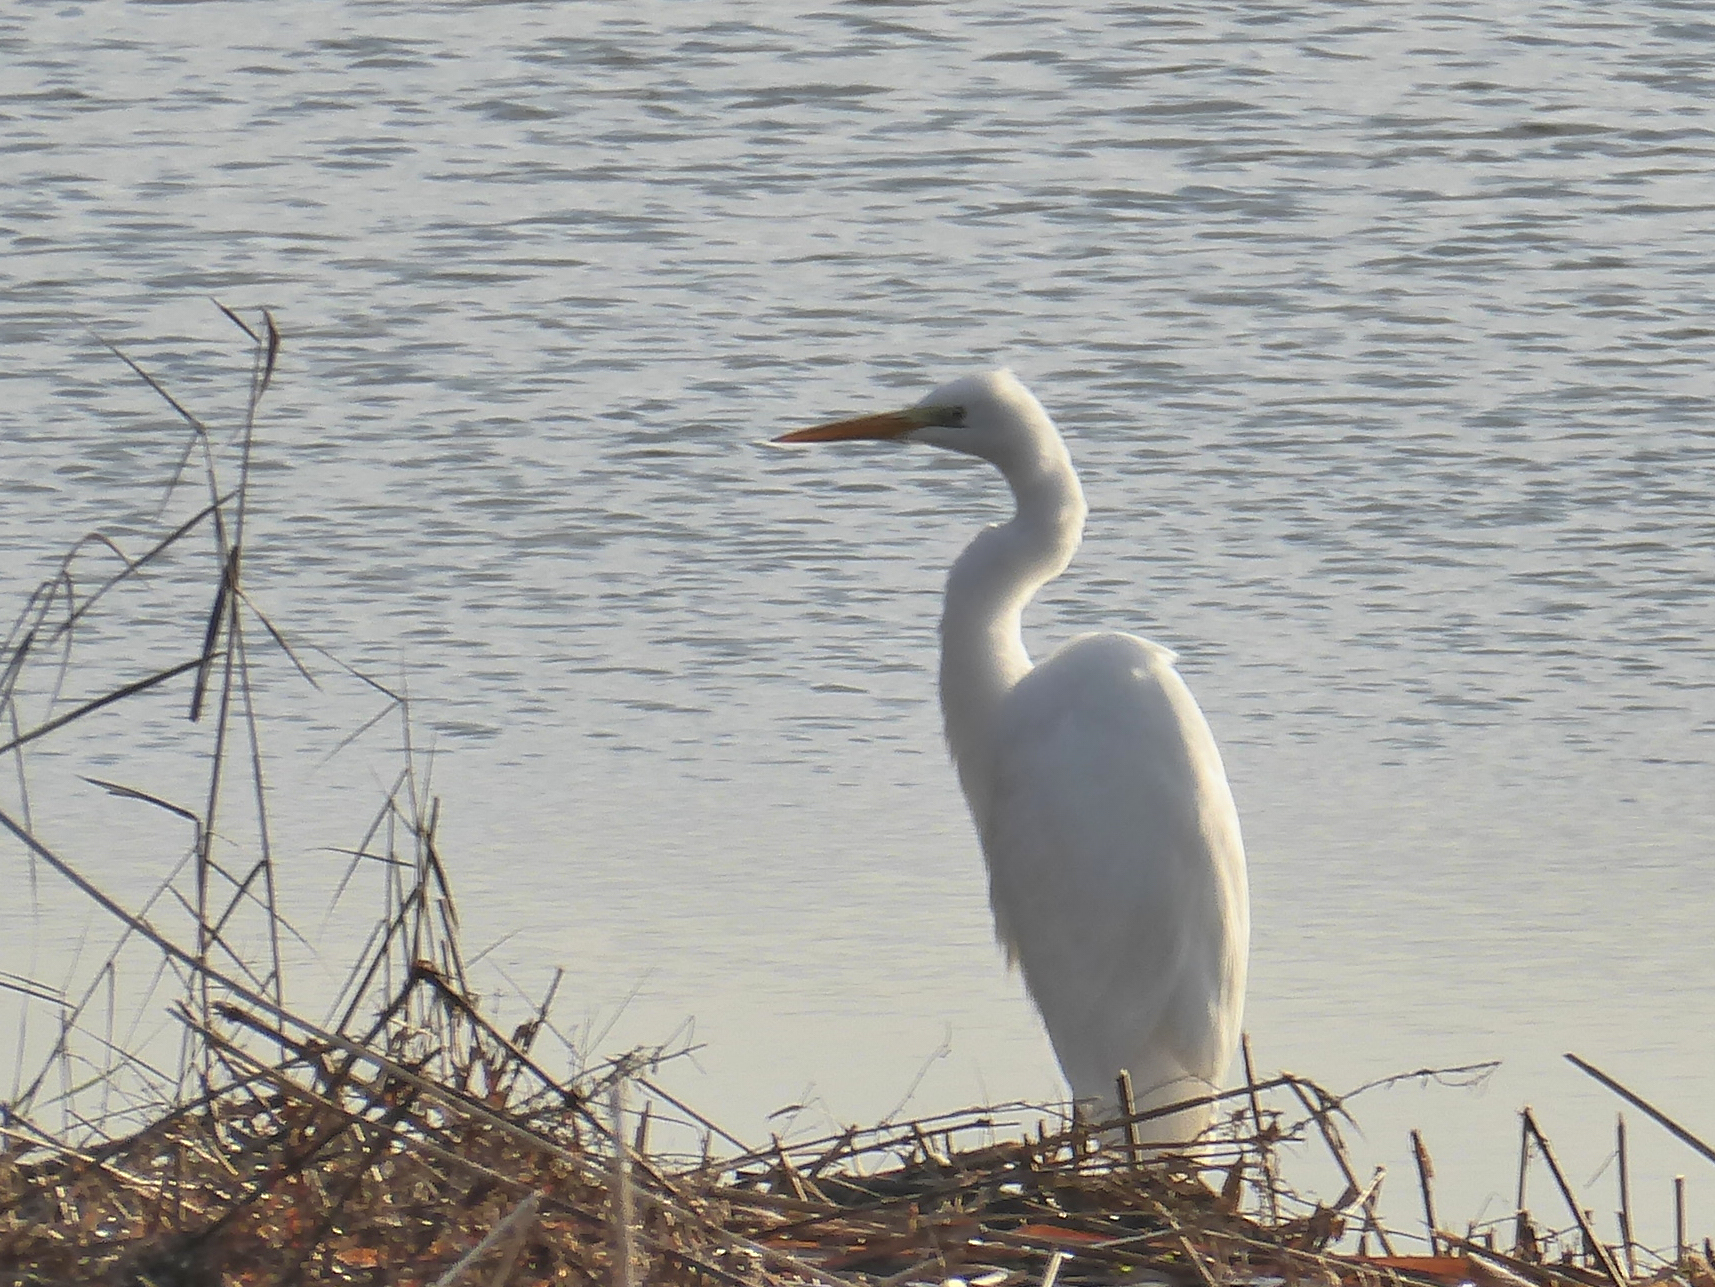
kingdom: Animalia
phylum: Chordata
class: Aves
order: Pelecaniformes
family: Ardeidae
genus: Ardea
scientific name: Ardea alba
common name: Great egret
